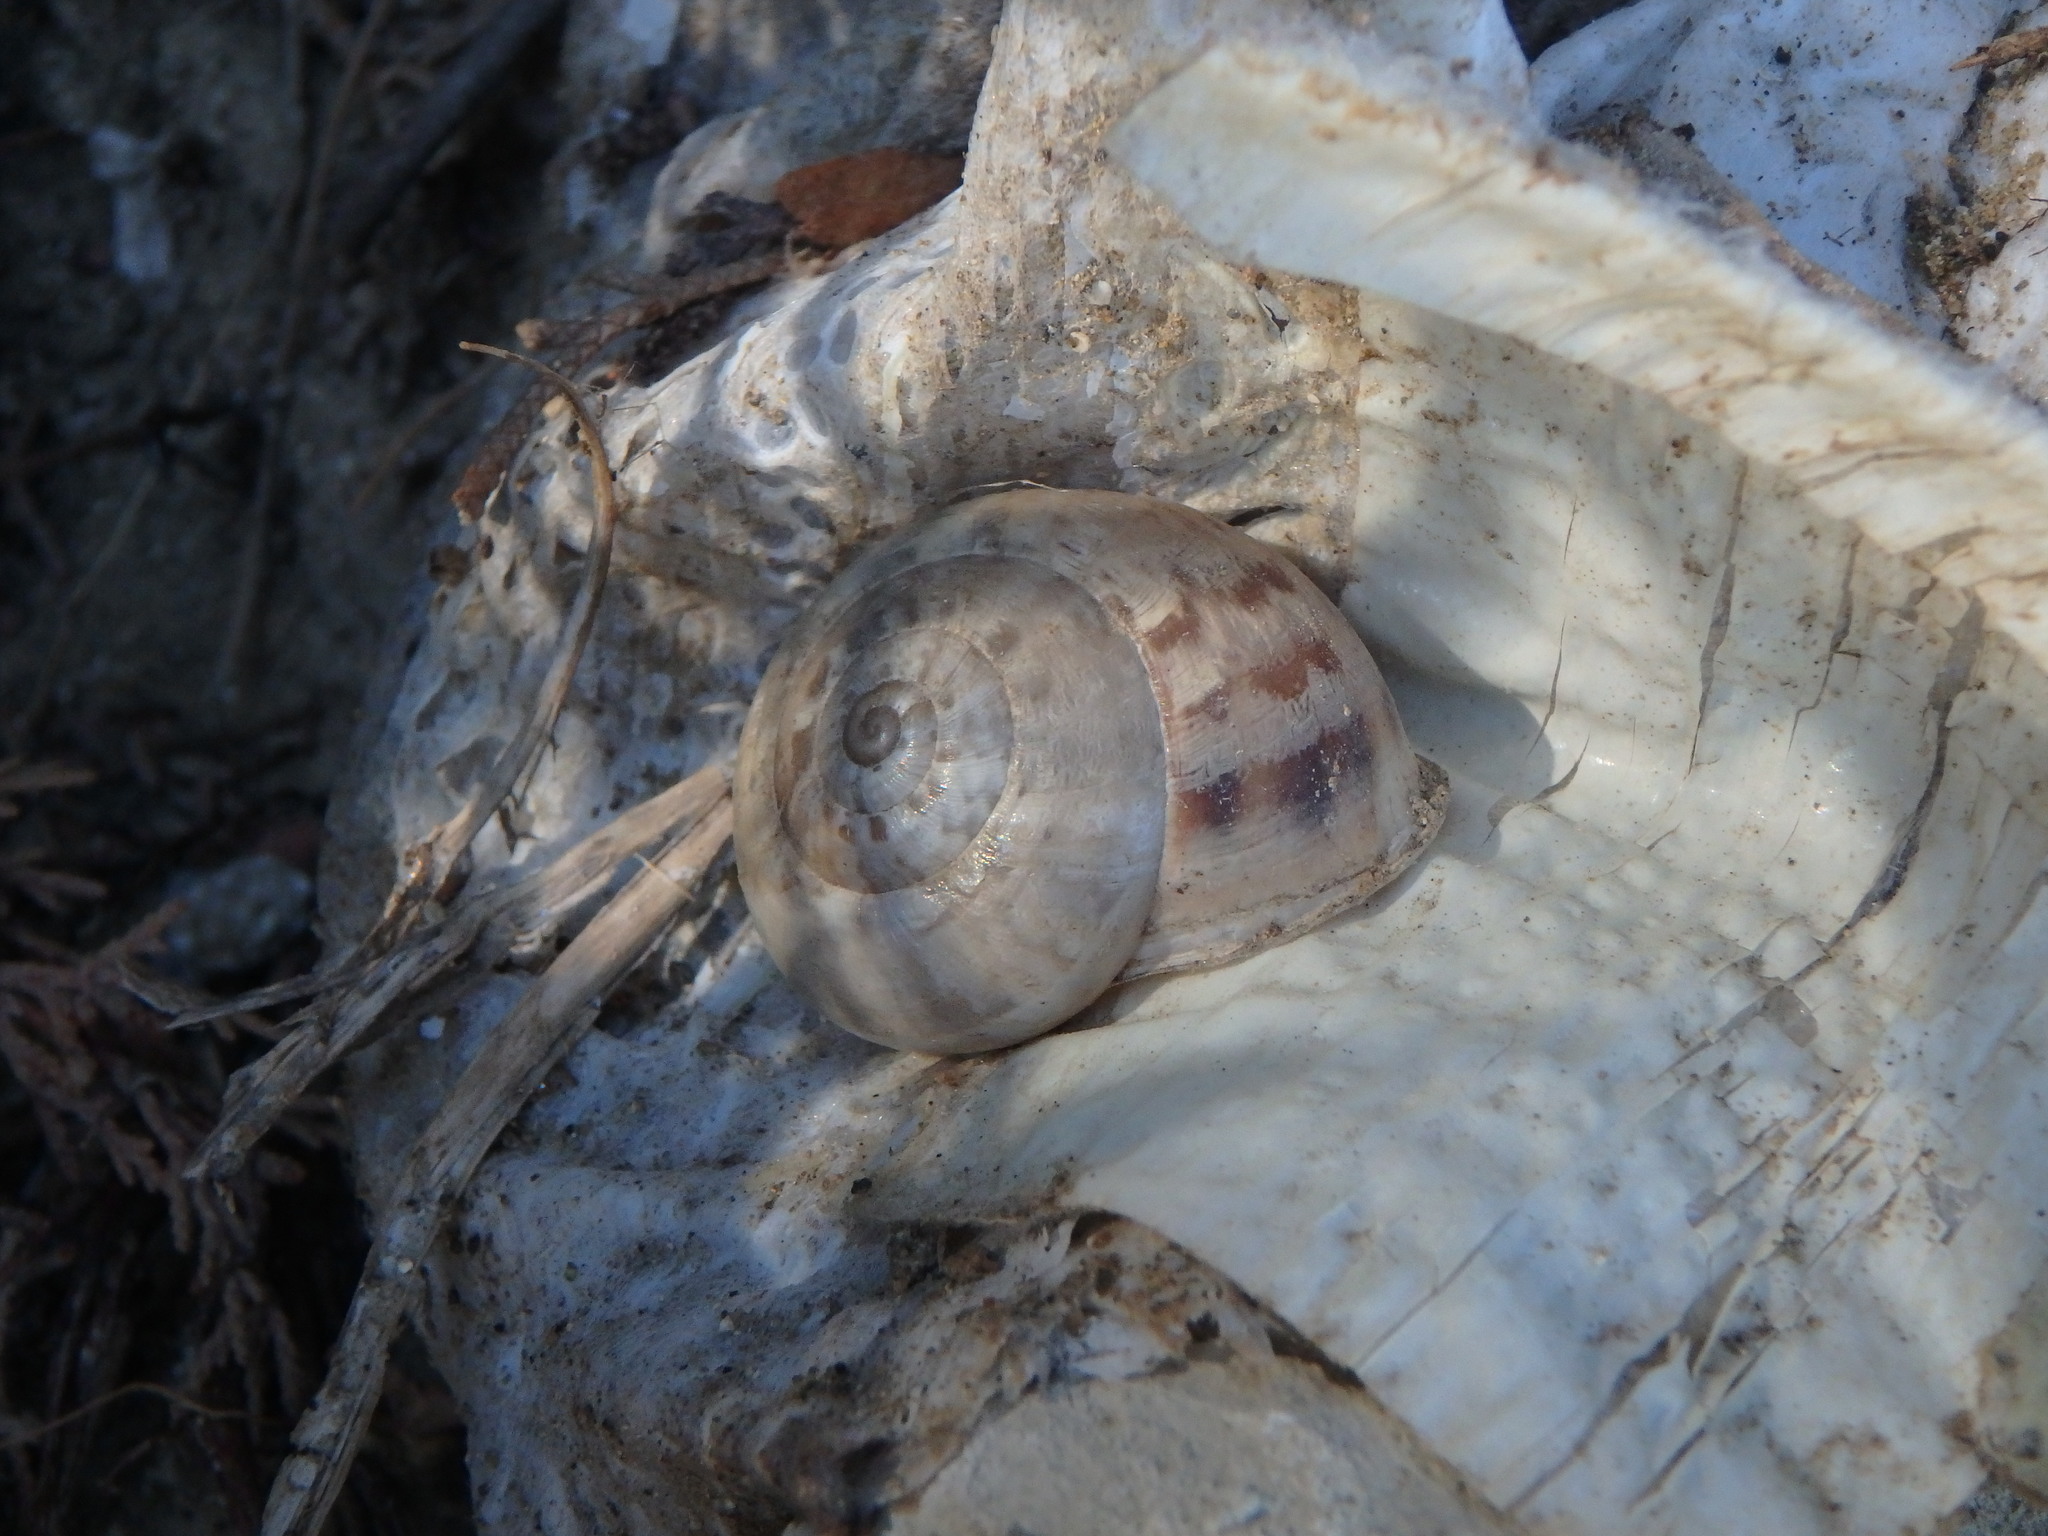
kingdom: Animalia
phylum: Mollusca
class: Gastropoda
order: Stylommatophora
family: Helicidae
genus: Eobania
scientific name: Eobania vermiculata
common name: Chocolateband snail
